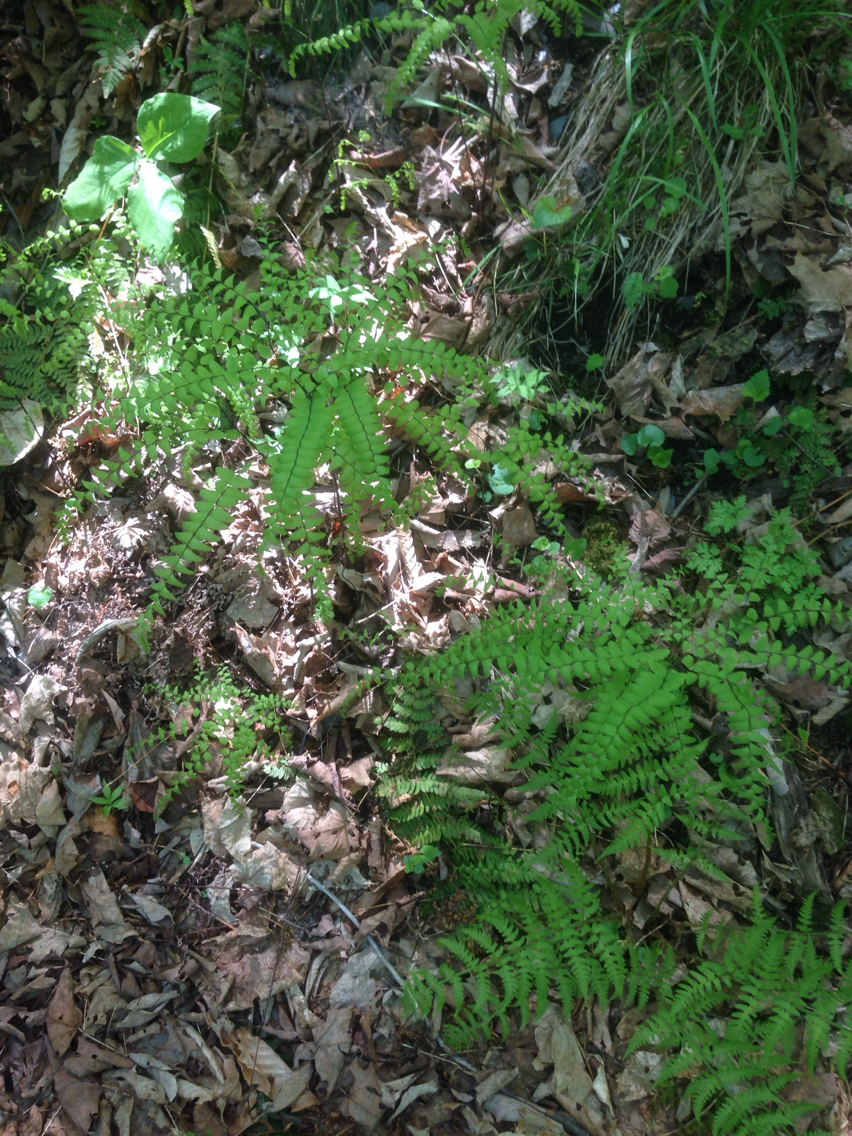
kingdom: Plantae
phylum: Tracheophyta
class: Polypodiopsida
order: Polypodiales
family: Pteridaceae
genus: Adiantum
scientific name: Adiantum pedatum
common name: Five-finger fern
